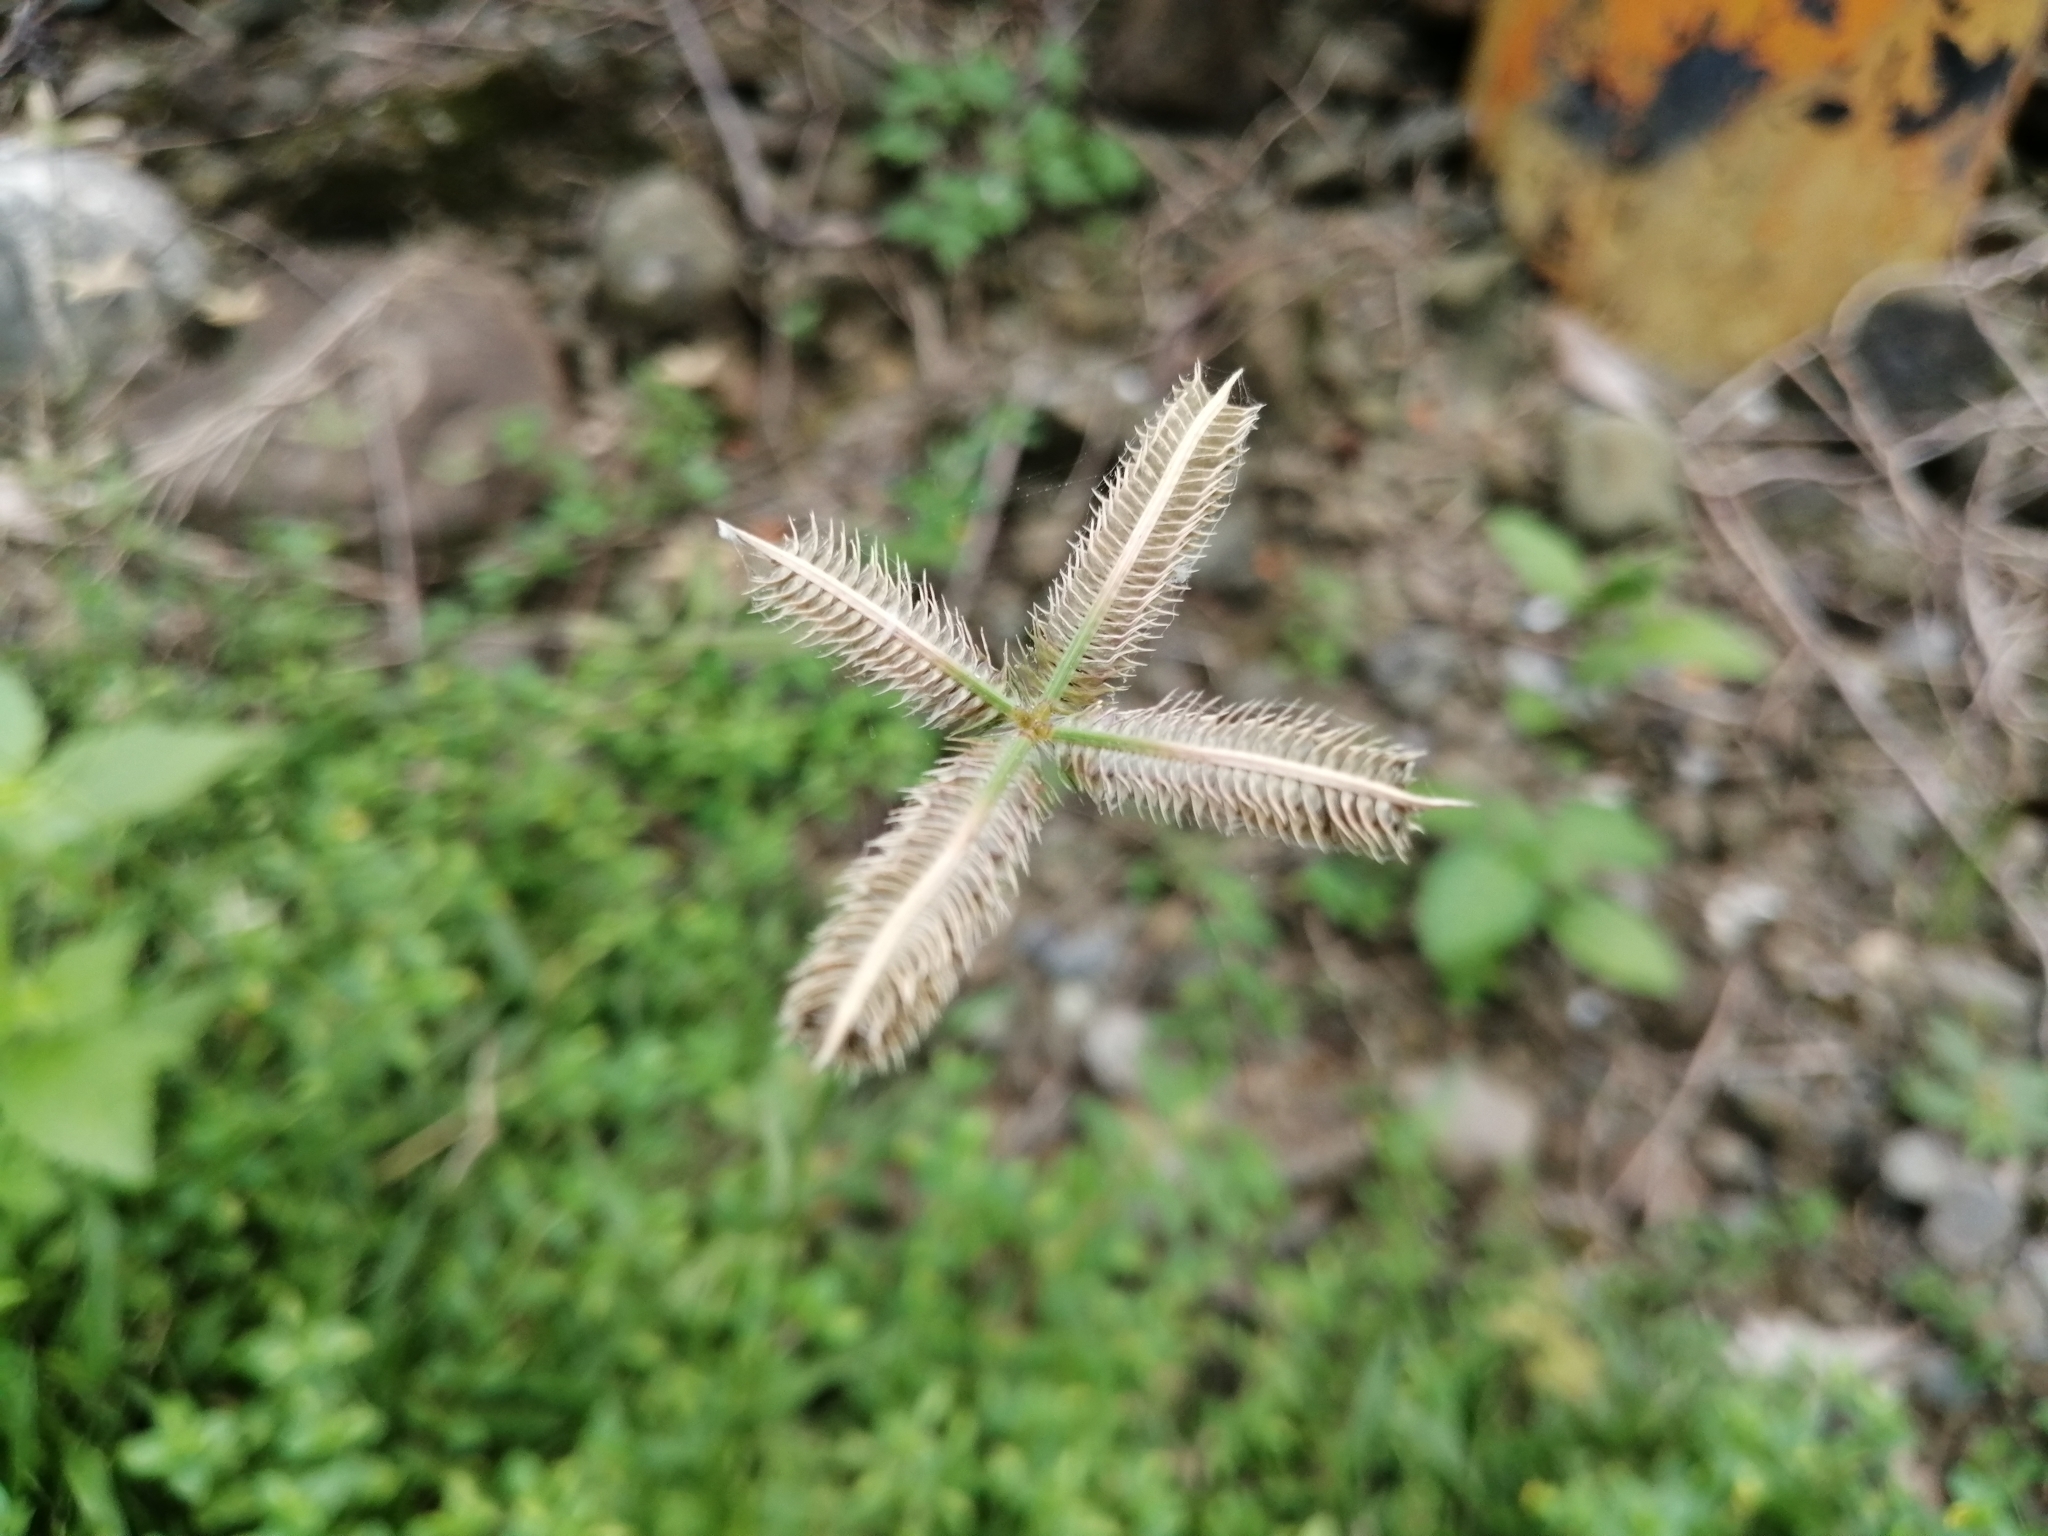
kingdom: Plantae
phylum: Tracheophyta
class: Liliopsida
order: Poales
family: Poaceae
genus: Dactyloctenium
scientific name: Dactyloctenium aegyptium
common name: Egyptian grass
